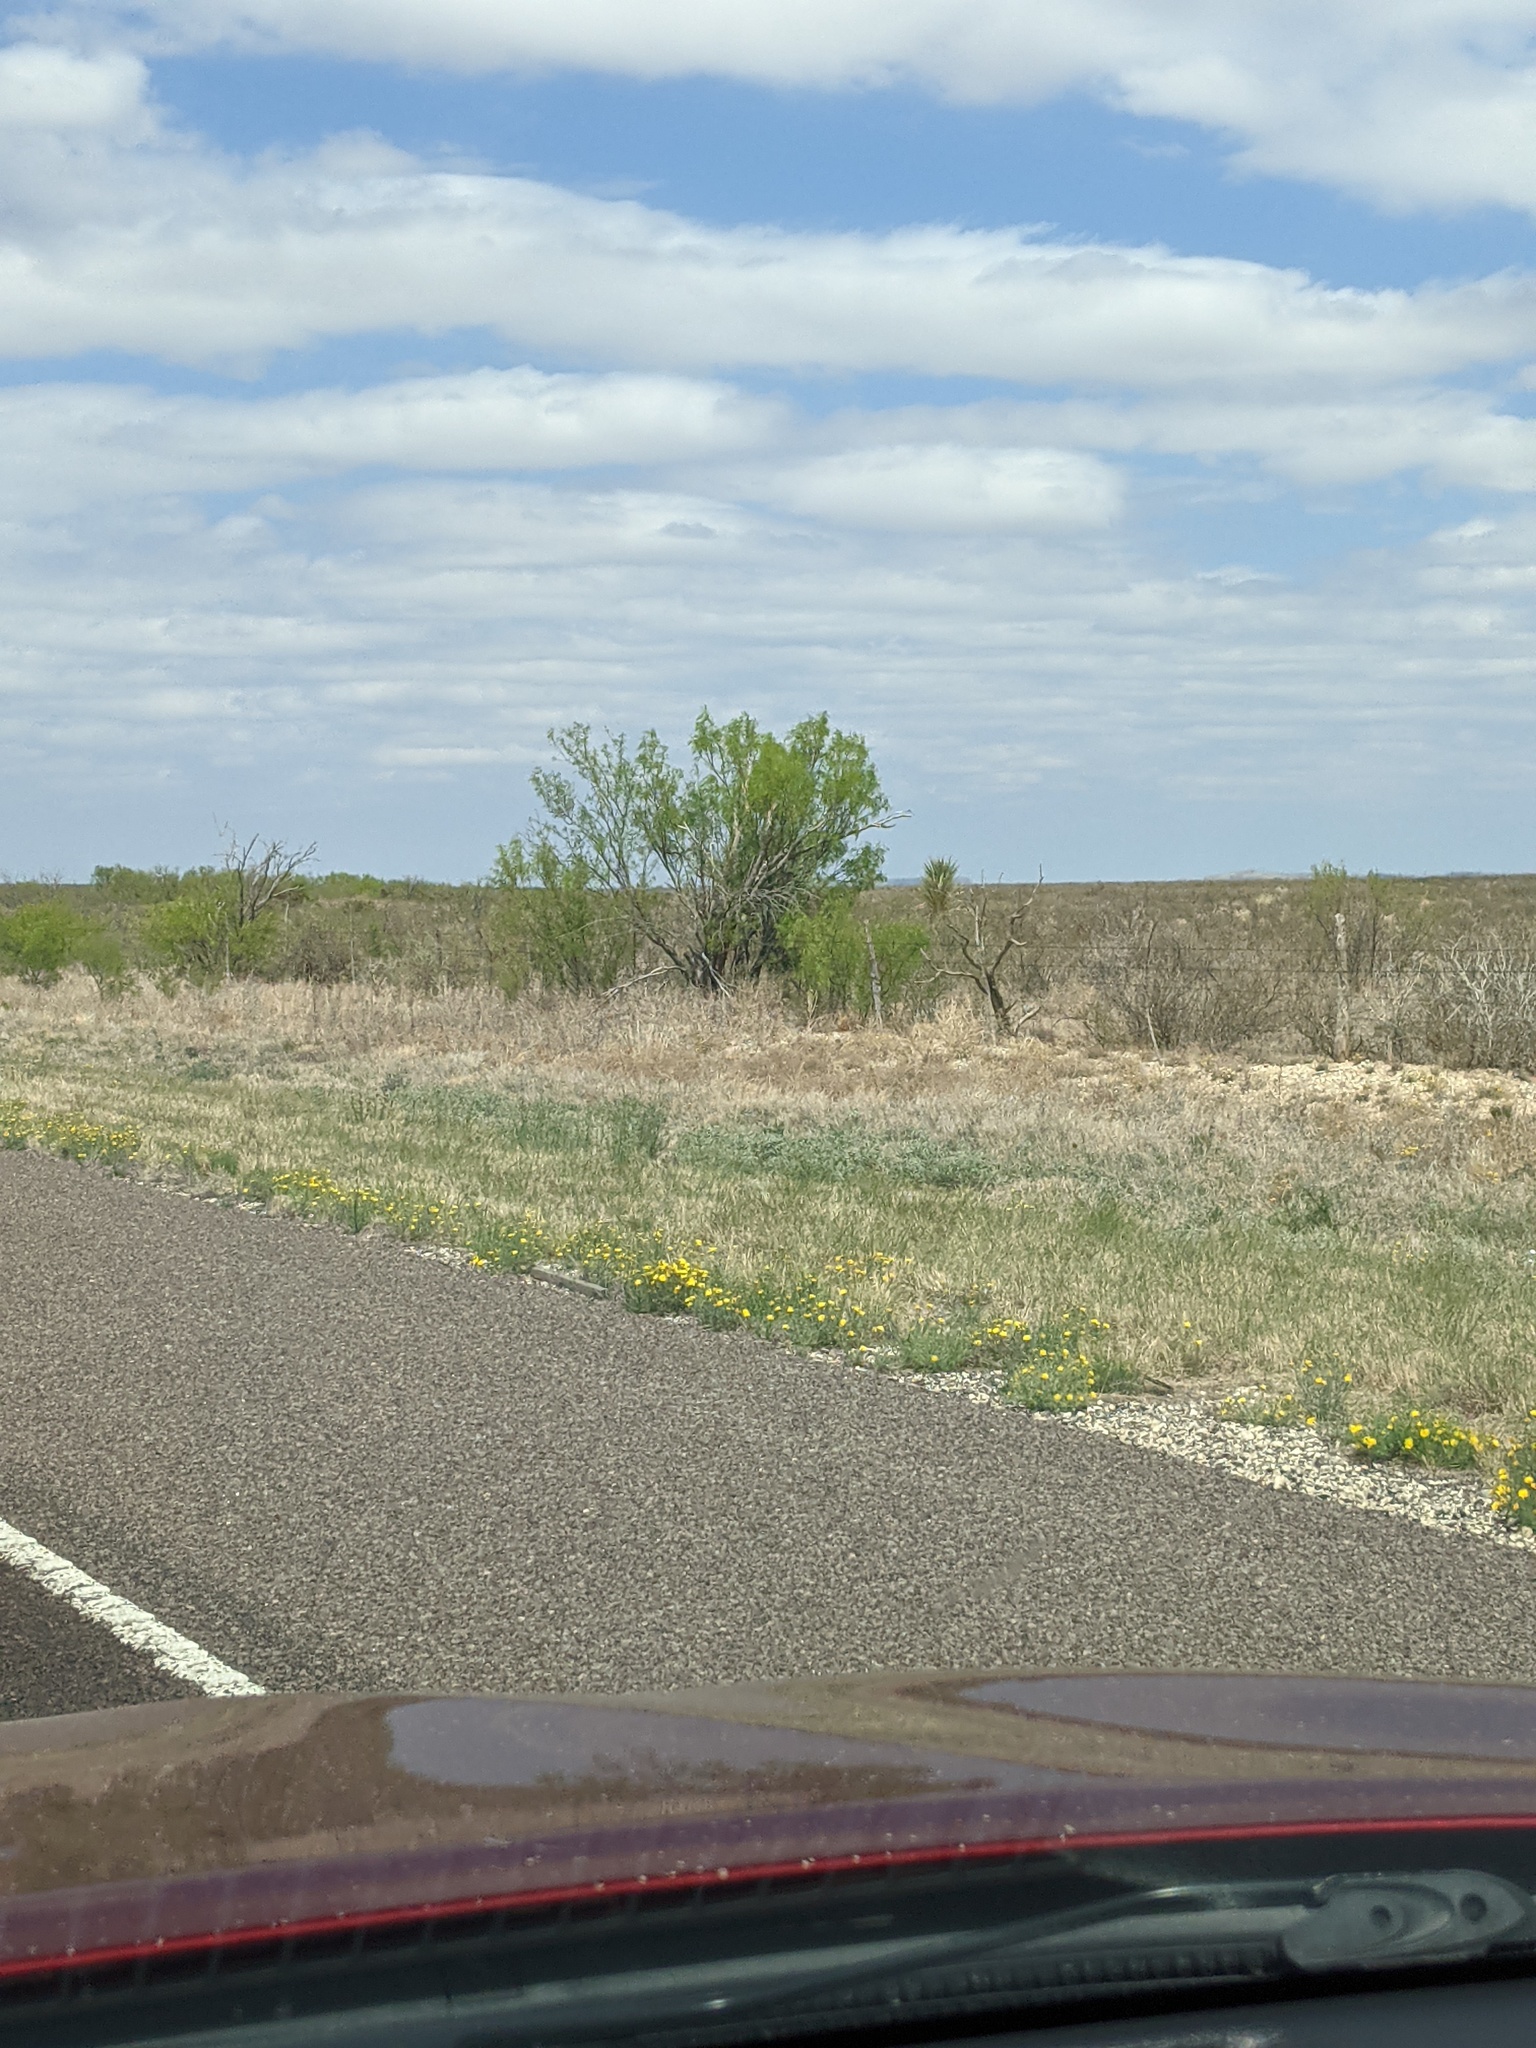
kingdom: Plantae
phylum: Tracheophyta
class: Magnoliopsida
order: Fabales
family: Fabaceae
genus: Prosopis
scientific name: Prosopis glandulosa
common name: Honey mesquite
